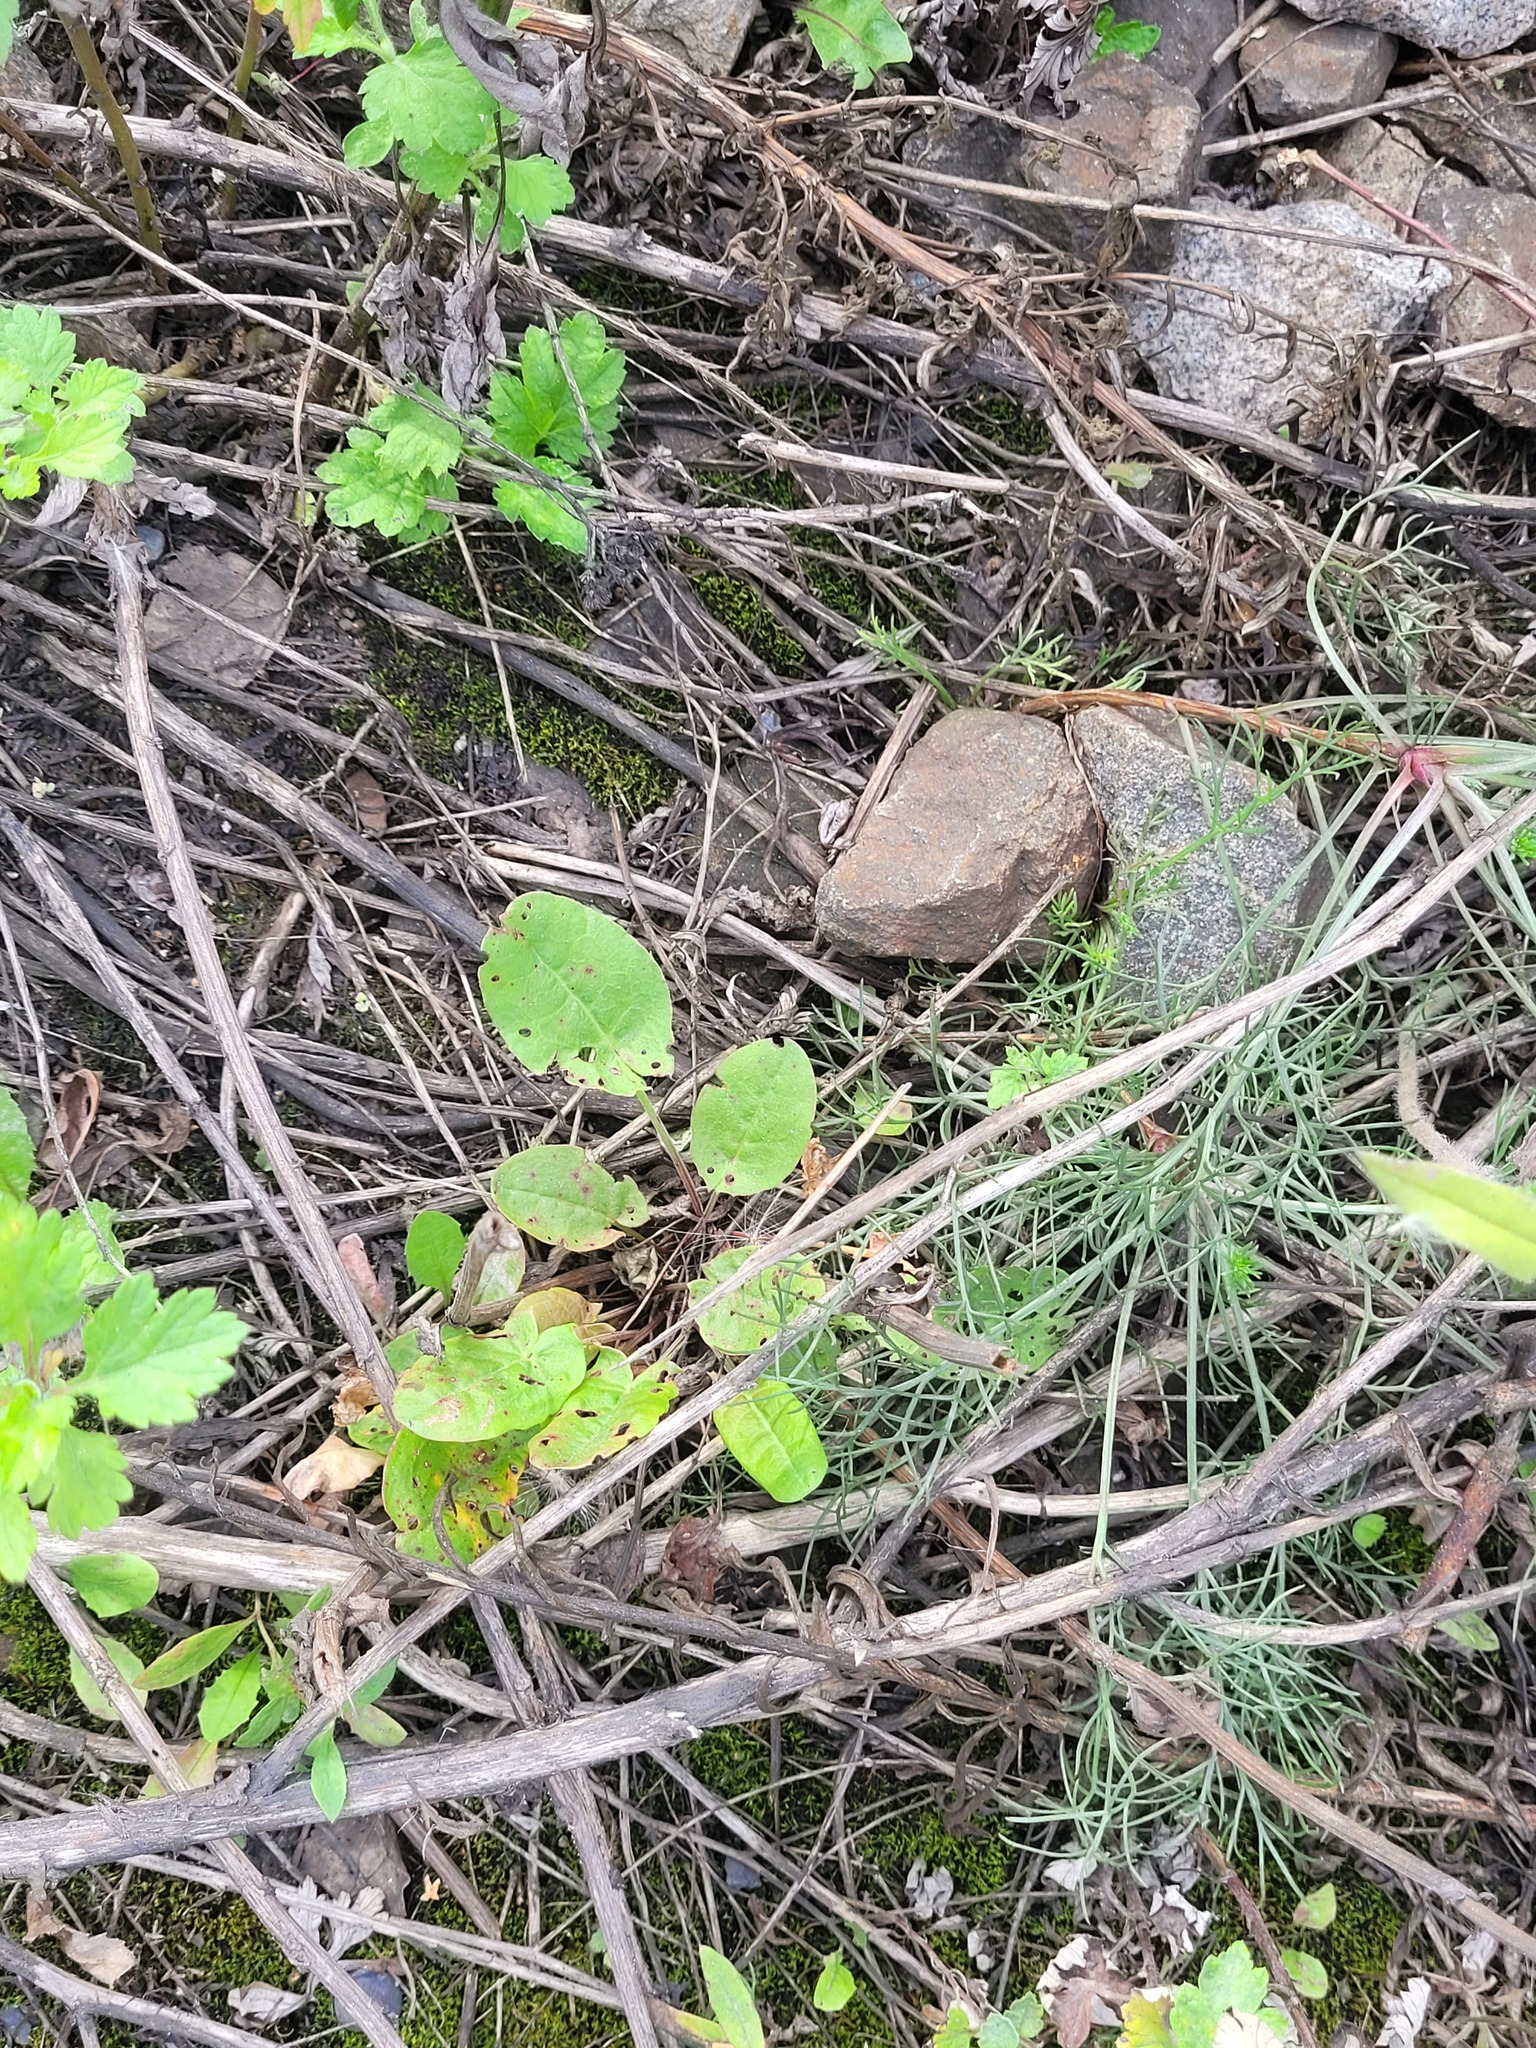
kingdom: Plantae
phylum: Tracheophyta
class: Magnoliopsida
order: Caryophyllales
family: Polygonaceae
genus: Rumex
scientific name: Rumex thyrsiflorus
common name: Garden sorrel
